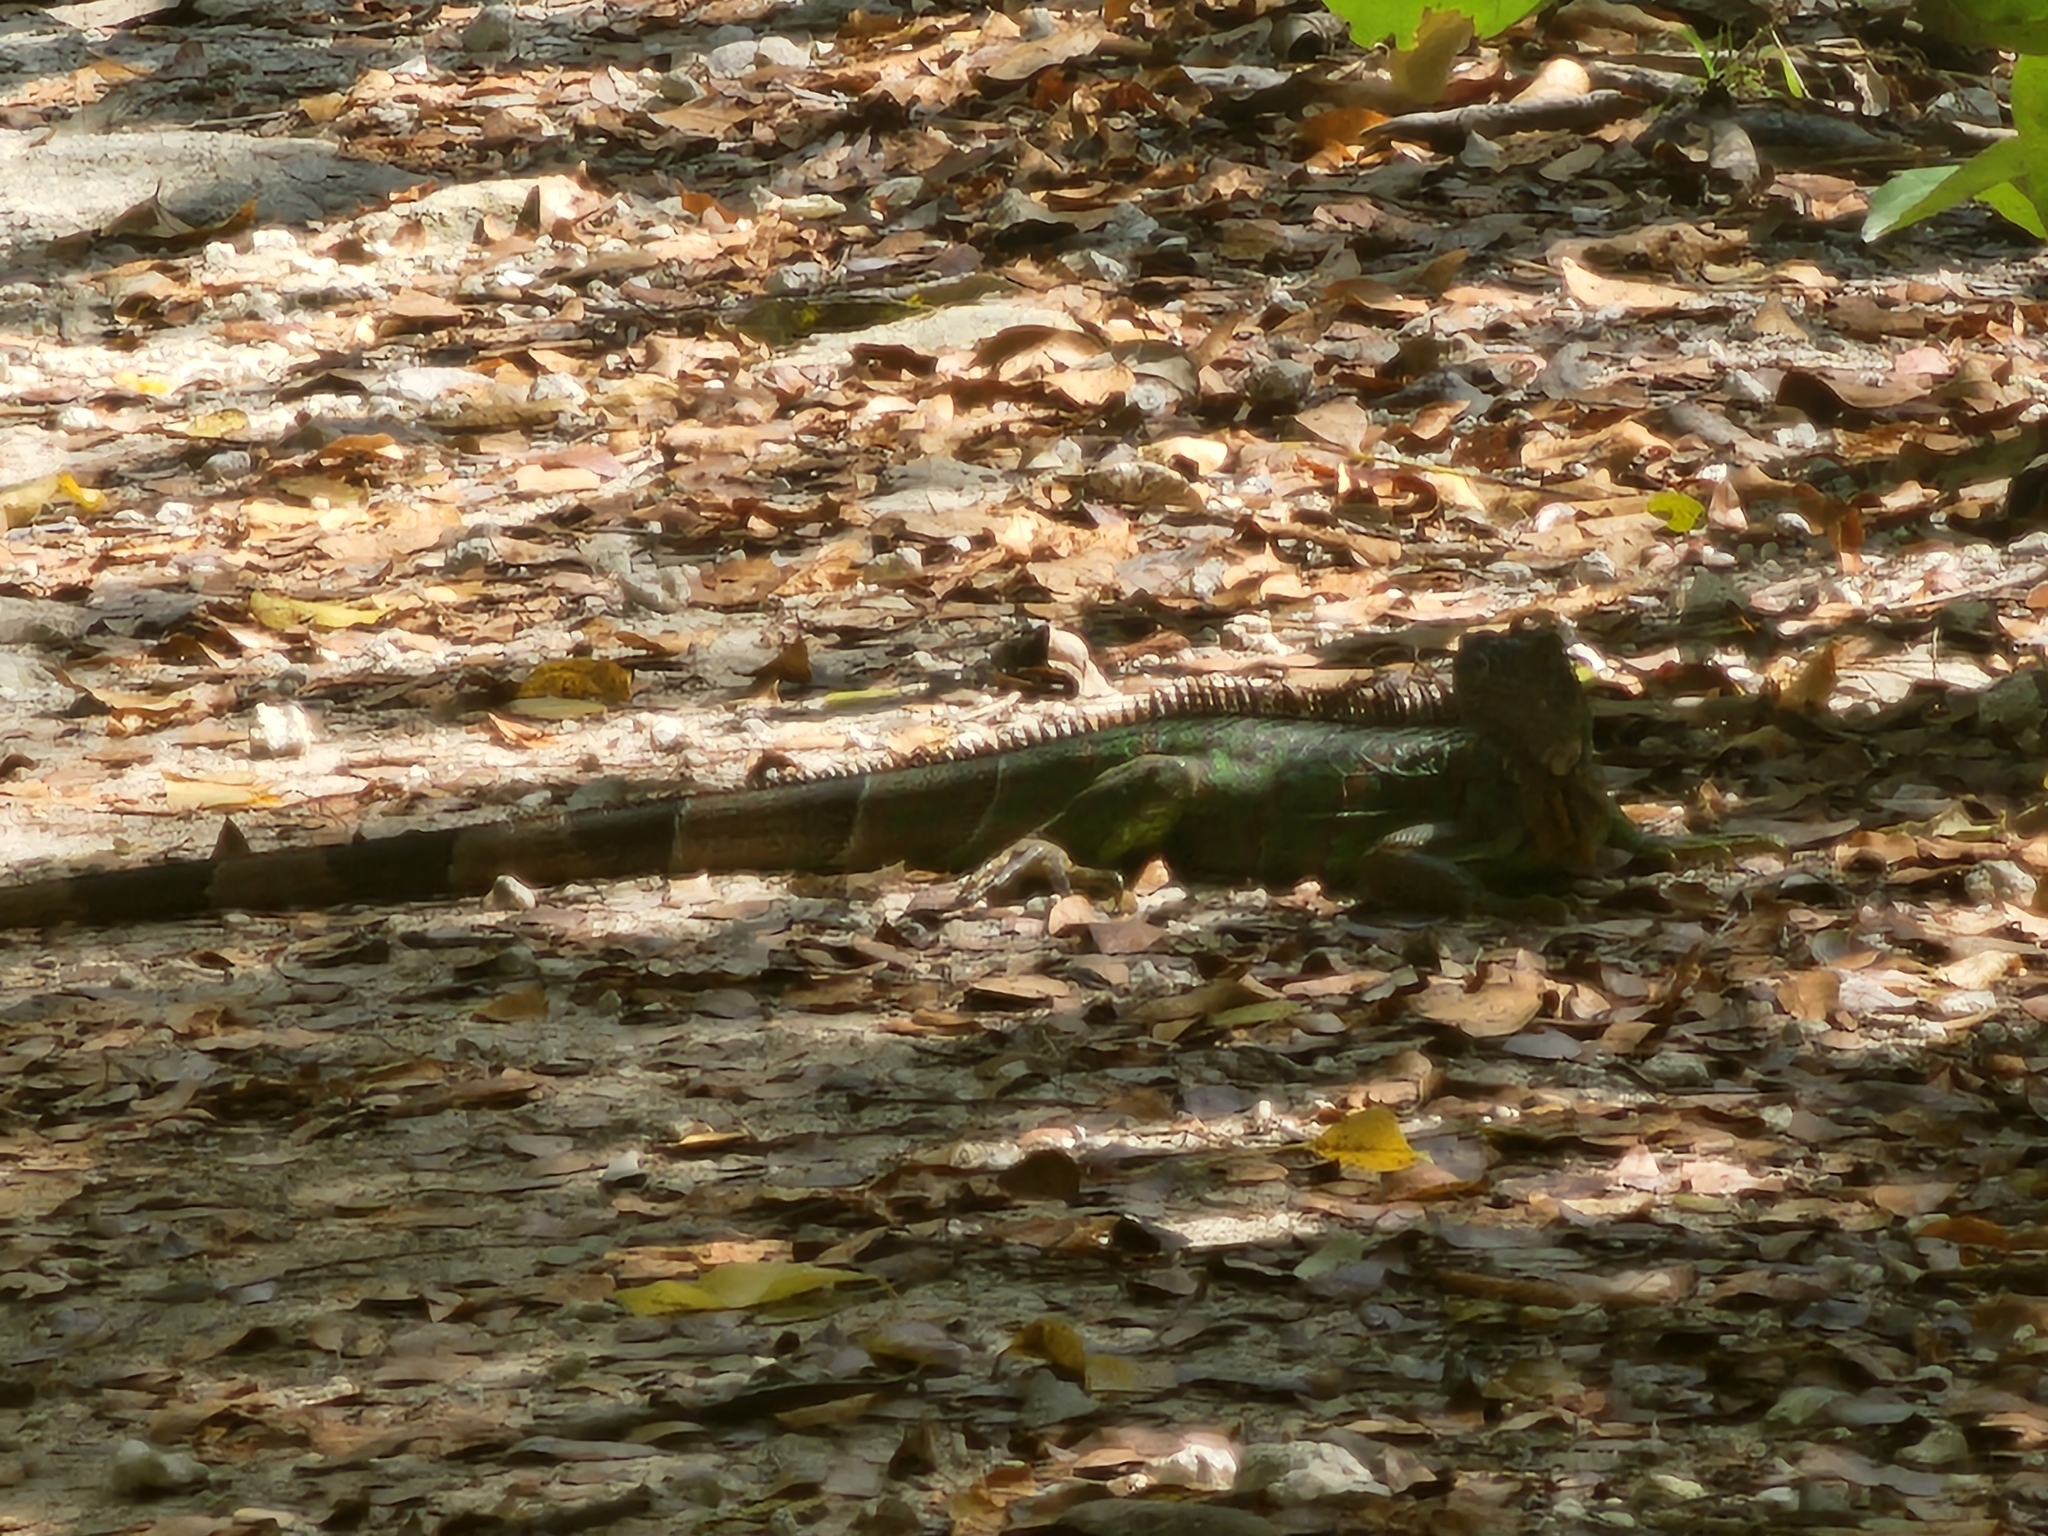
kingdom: Animalia
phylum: Chordata
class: Squamata
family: Iguanidae
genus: Iguana
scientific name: Iguana iguana
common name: Green iguana
